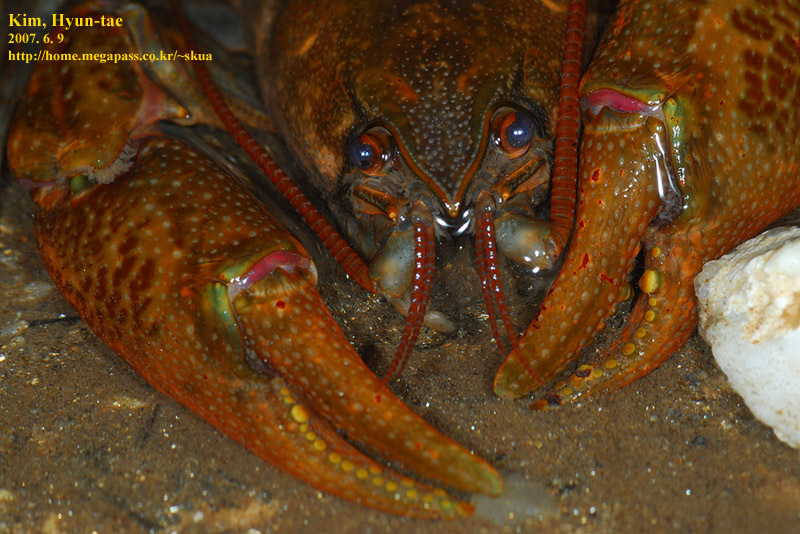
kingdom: Animalia
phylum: Arthropoda
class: Malacostraca
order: Decapoda
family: Cambaroididae
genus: Cambaroides
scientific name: Cambaroides similis
